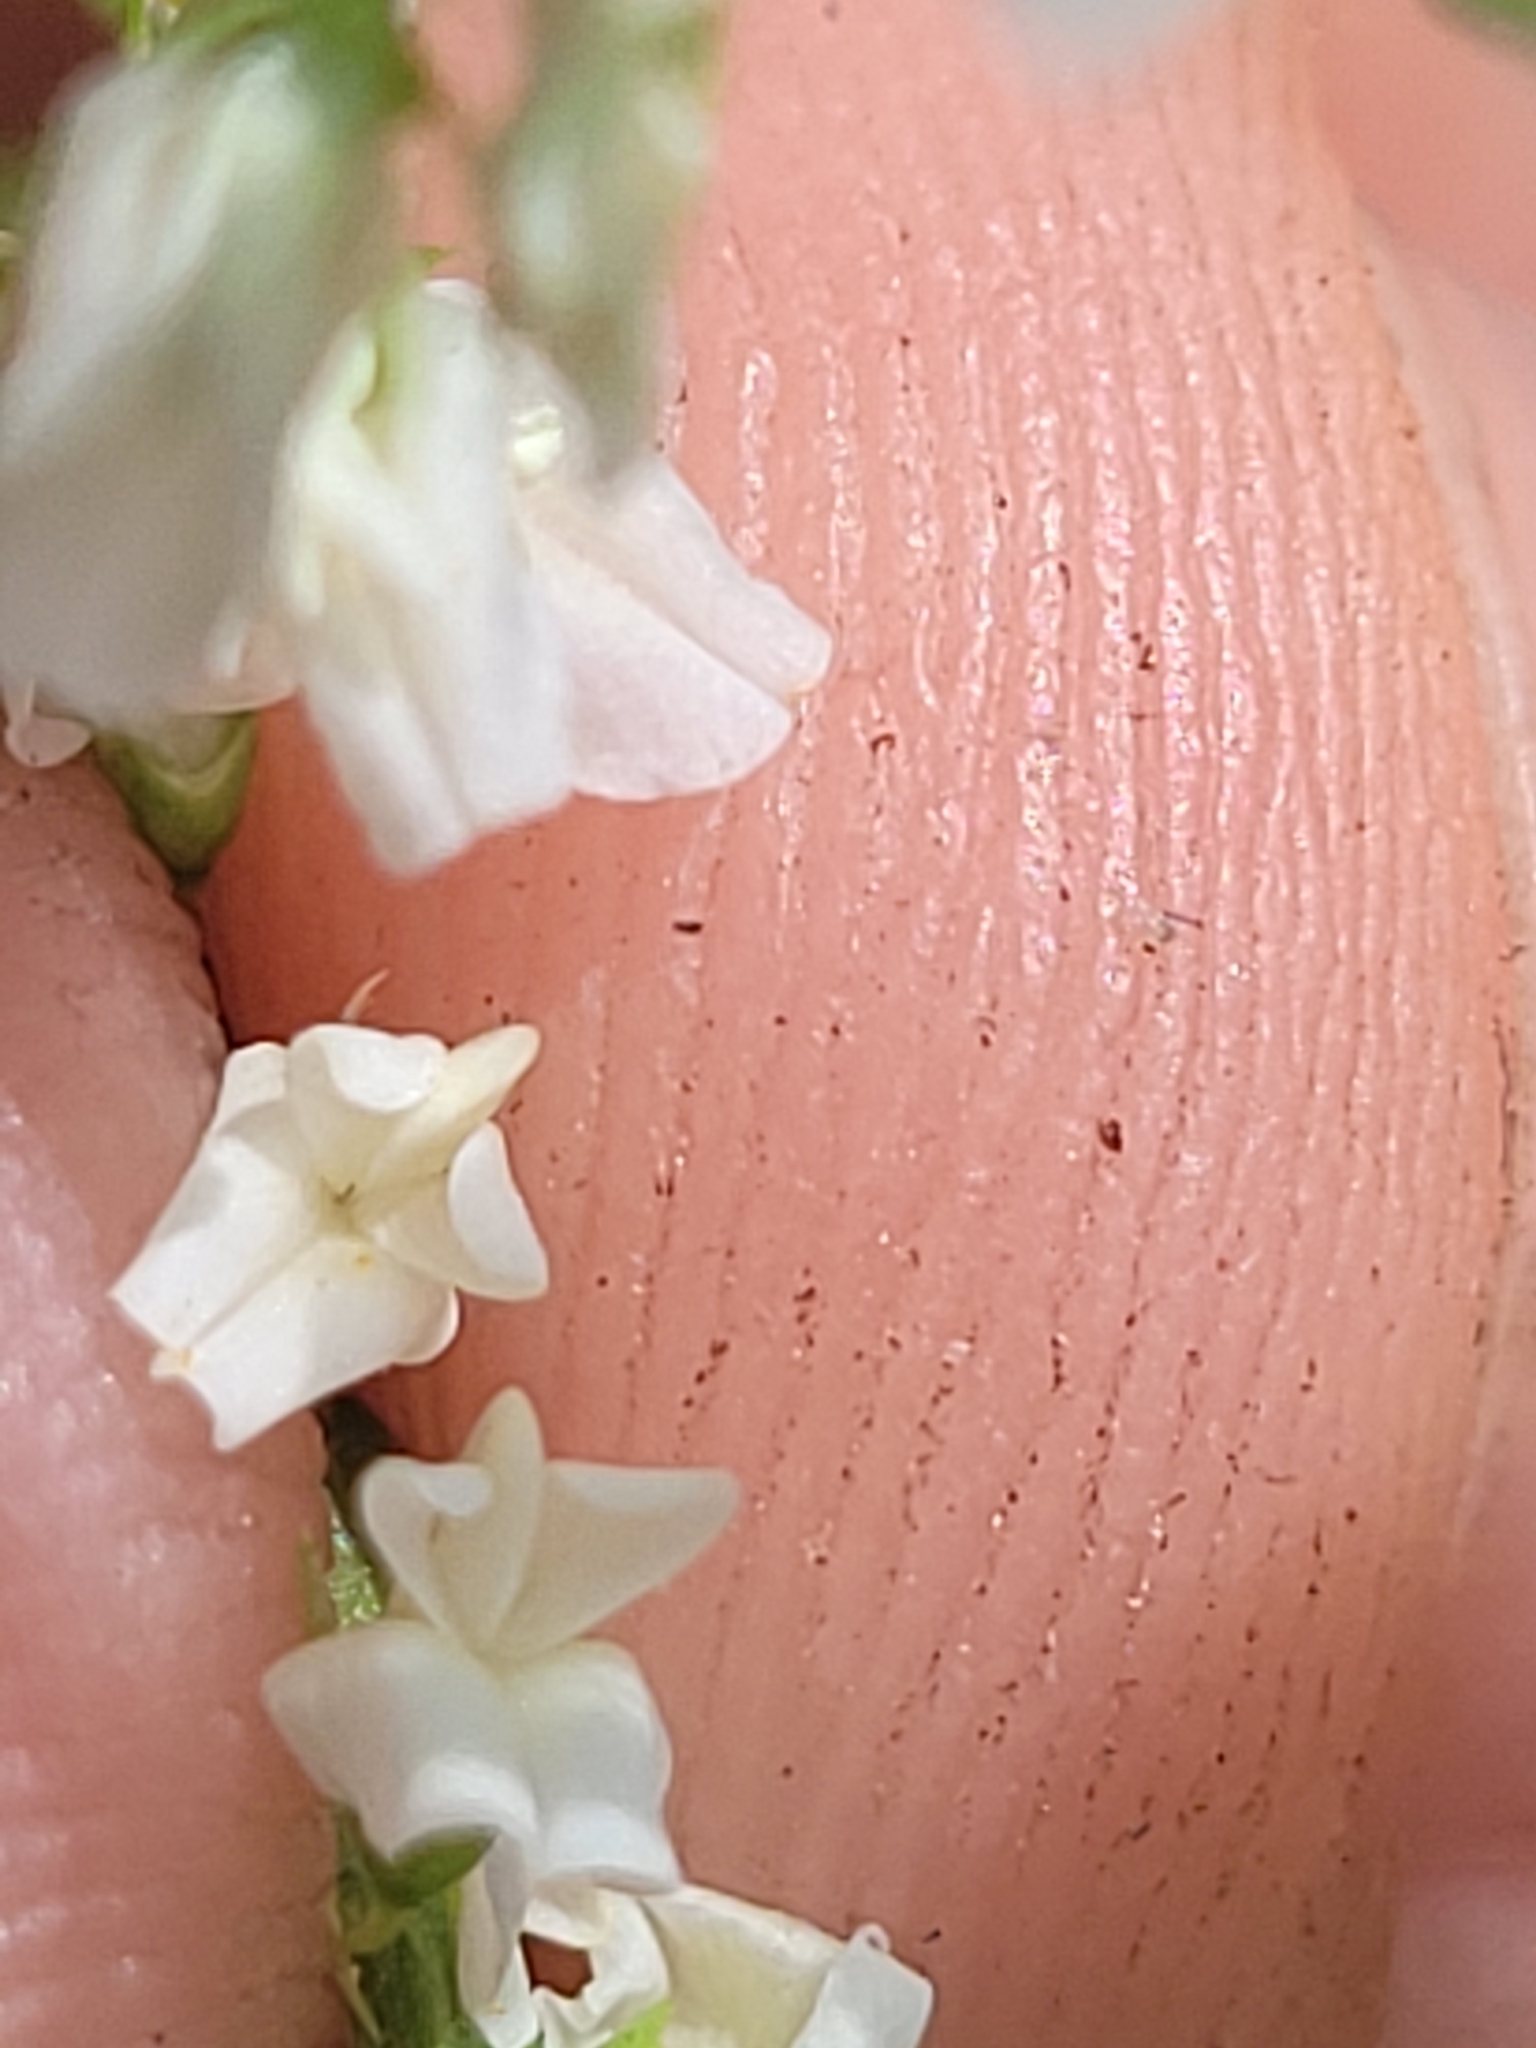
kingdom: Plantae
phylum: Tracheophyta
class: Magnoliopsida
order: Fabales
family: Fabaceae
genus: Melilotus
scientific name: Melilotus albus
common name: White melilot
